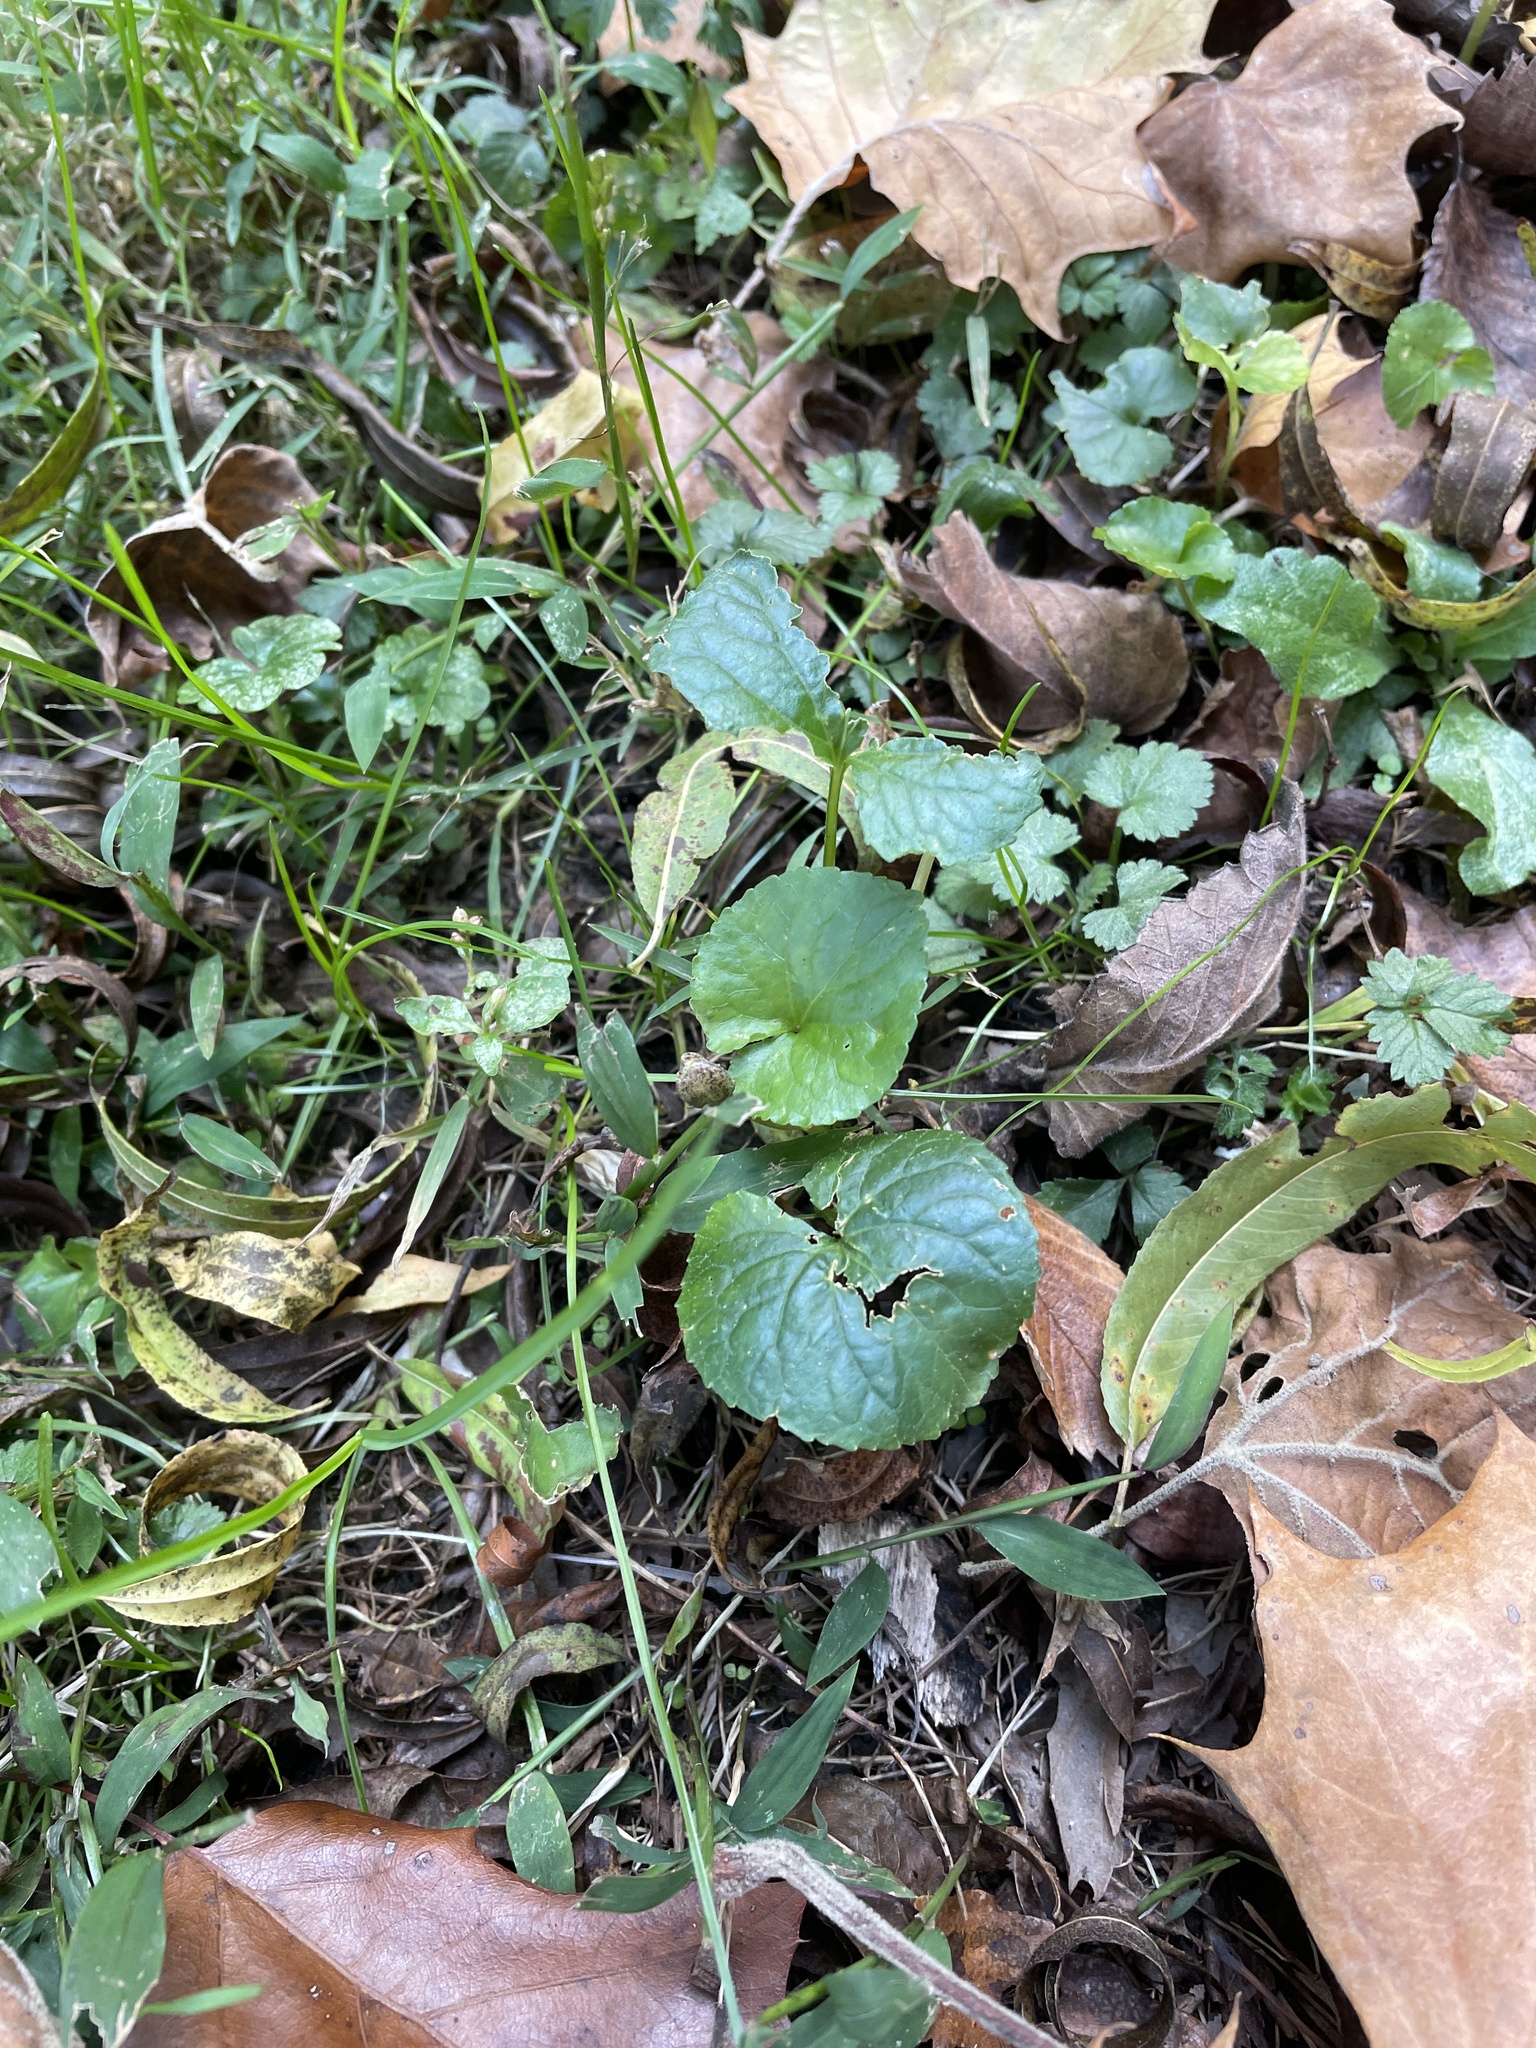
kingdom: Plantae
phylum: Tracheophyta
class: Magnoliopsida
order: Malpighiales
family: Violaceae
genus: Viola
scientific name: Viola sororia
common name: Dooryard violet
